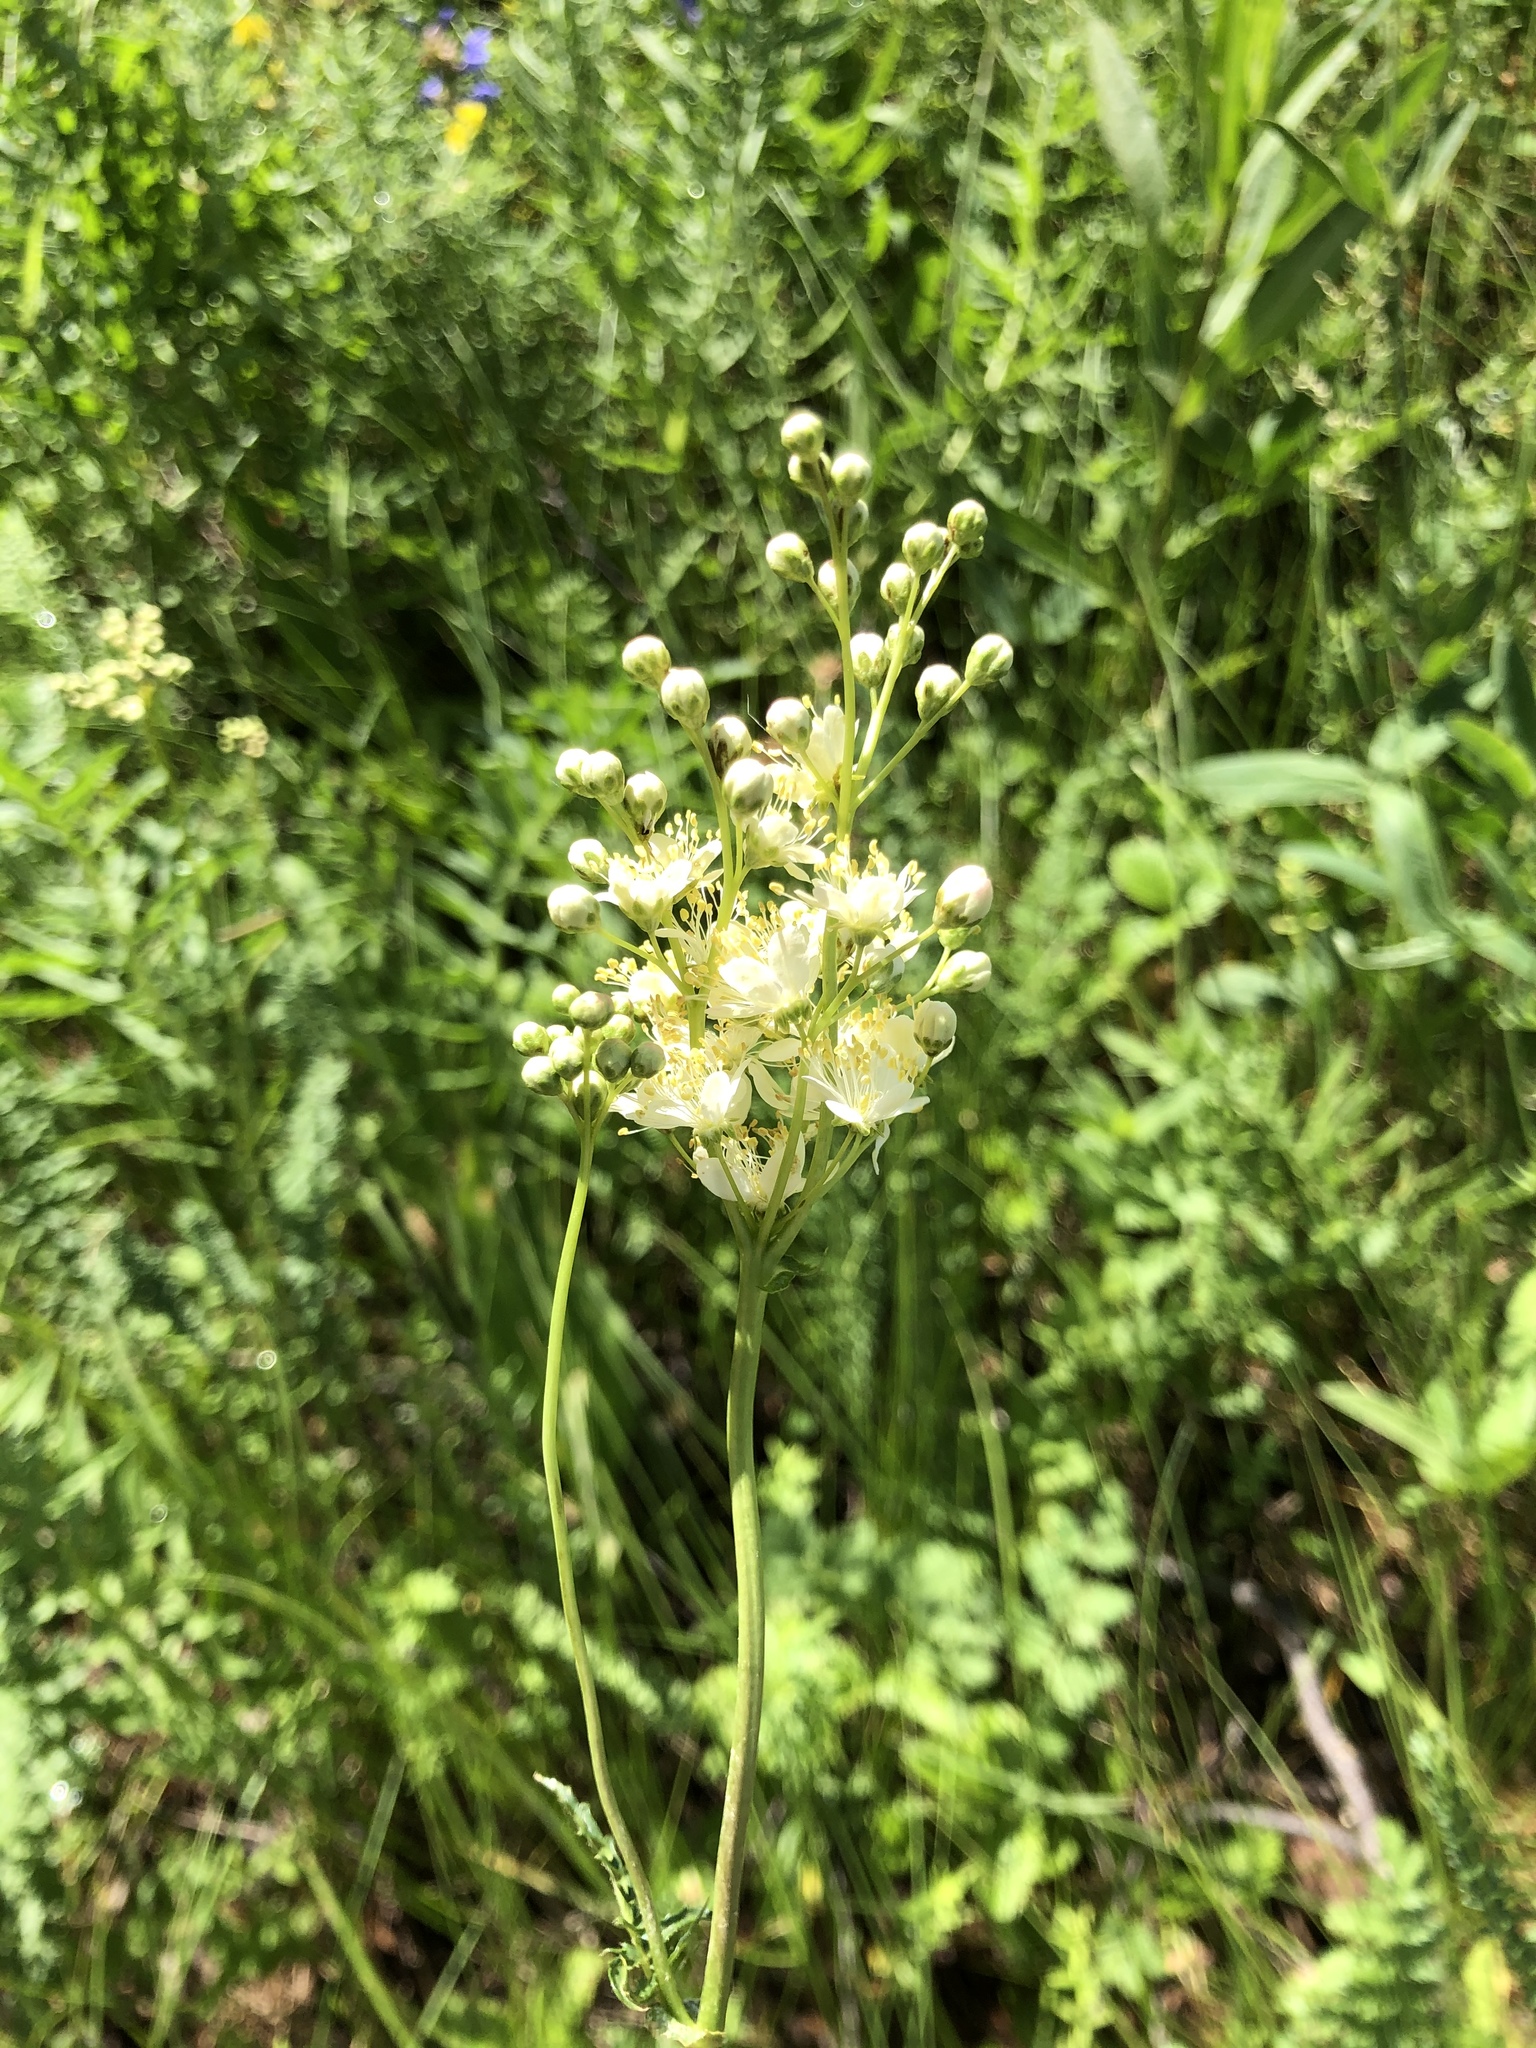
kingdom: Plantae
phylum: Tracheophyta
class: Magnoliopsida
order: Rosales
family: Rosaceae
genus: Filipendula
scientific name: Filipendula vulgaris
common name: Dropwort
